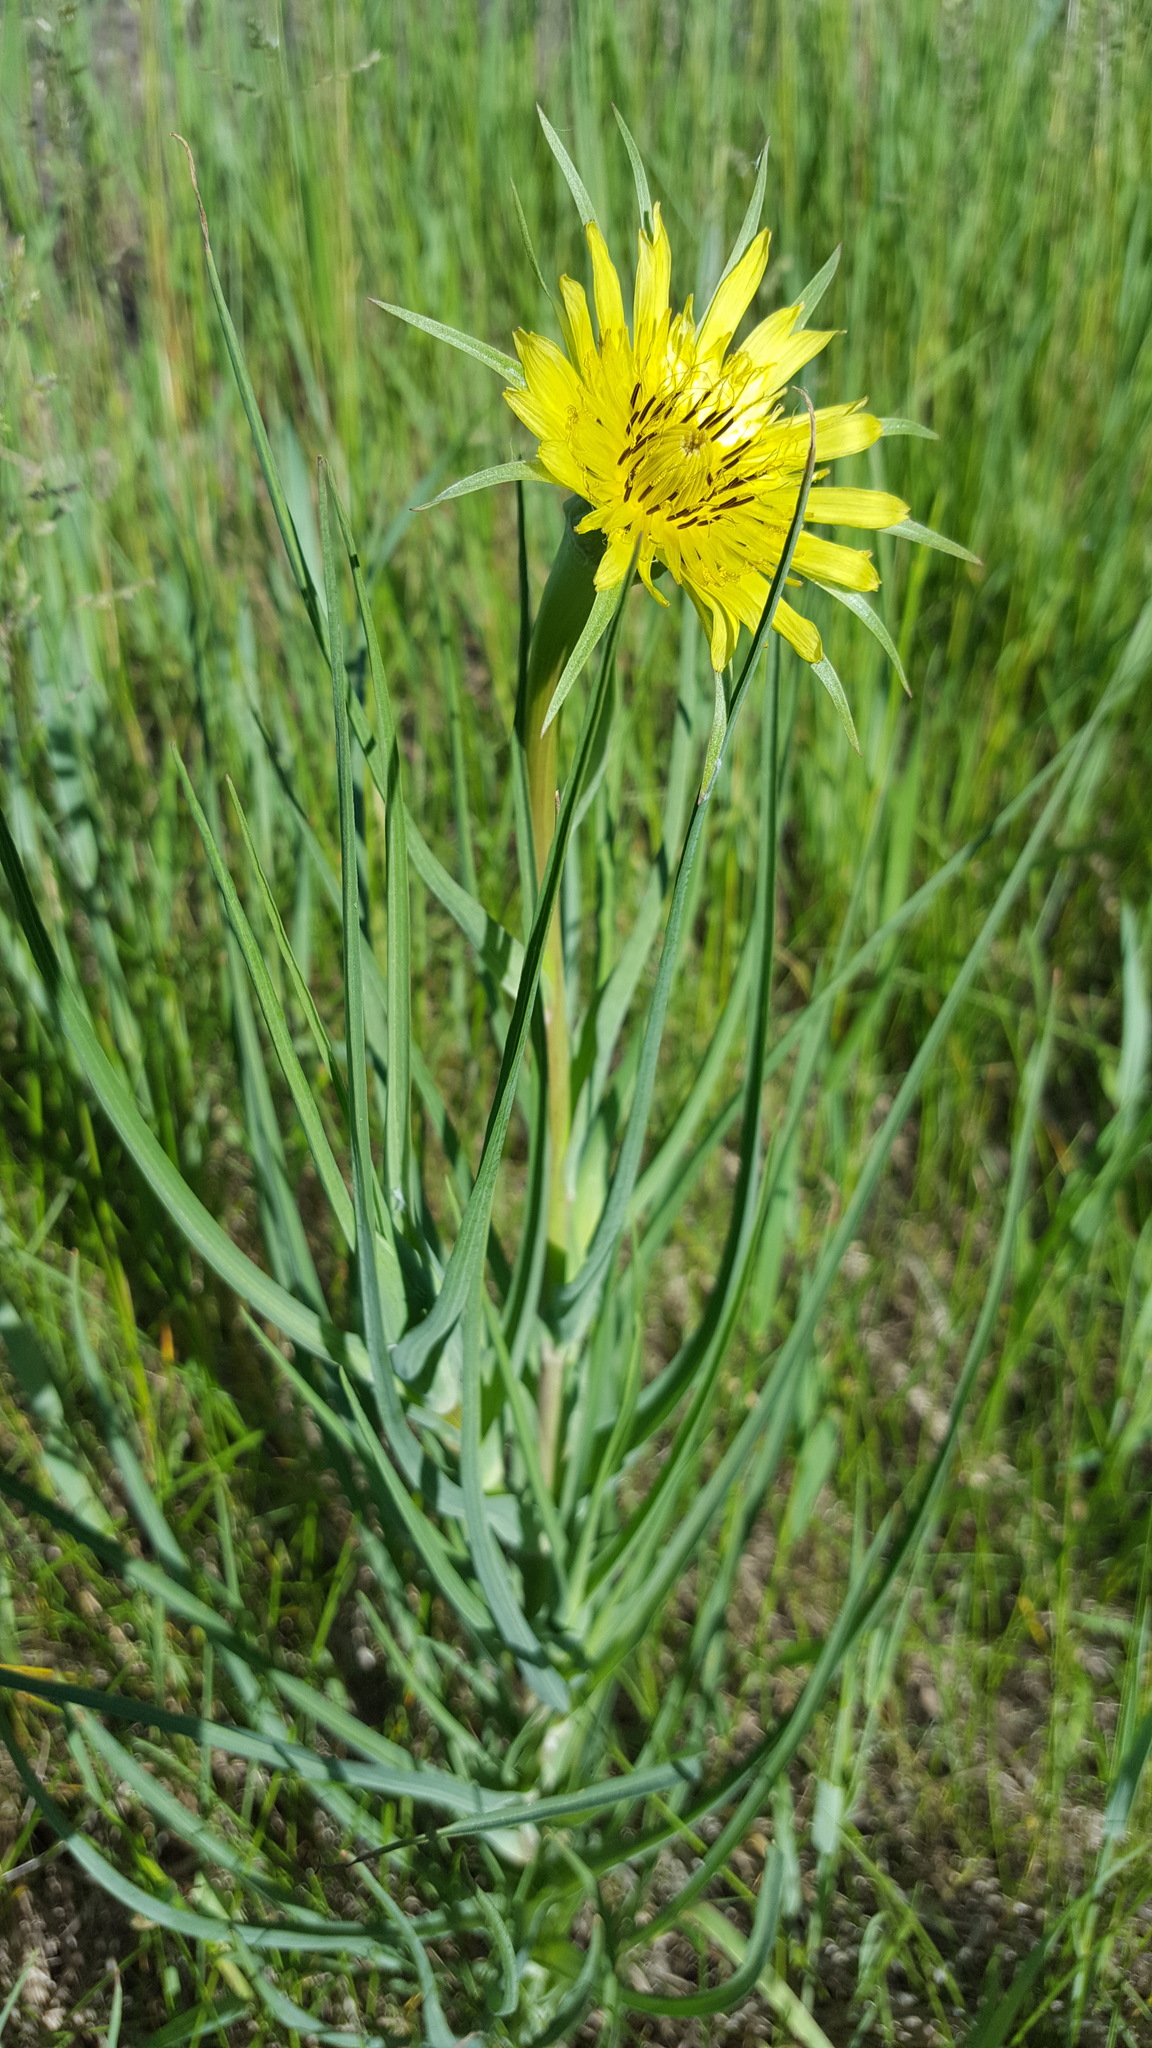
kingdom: Plantae
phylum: Tracheophyta
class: Magnoliopsida
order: Asterales
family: Asteraceae
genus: Tragopogon
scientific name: Tragopogon dubius
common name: Yellow salsify
